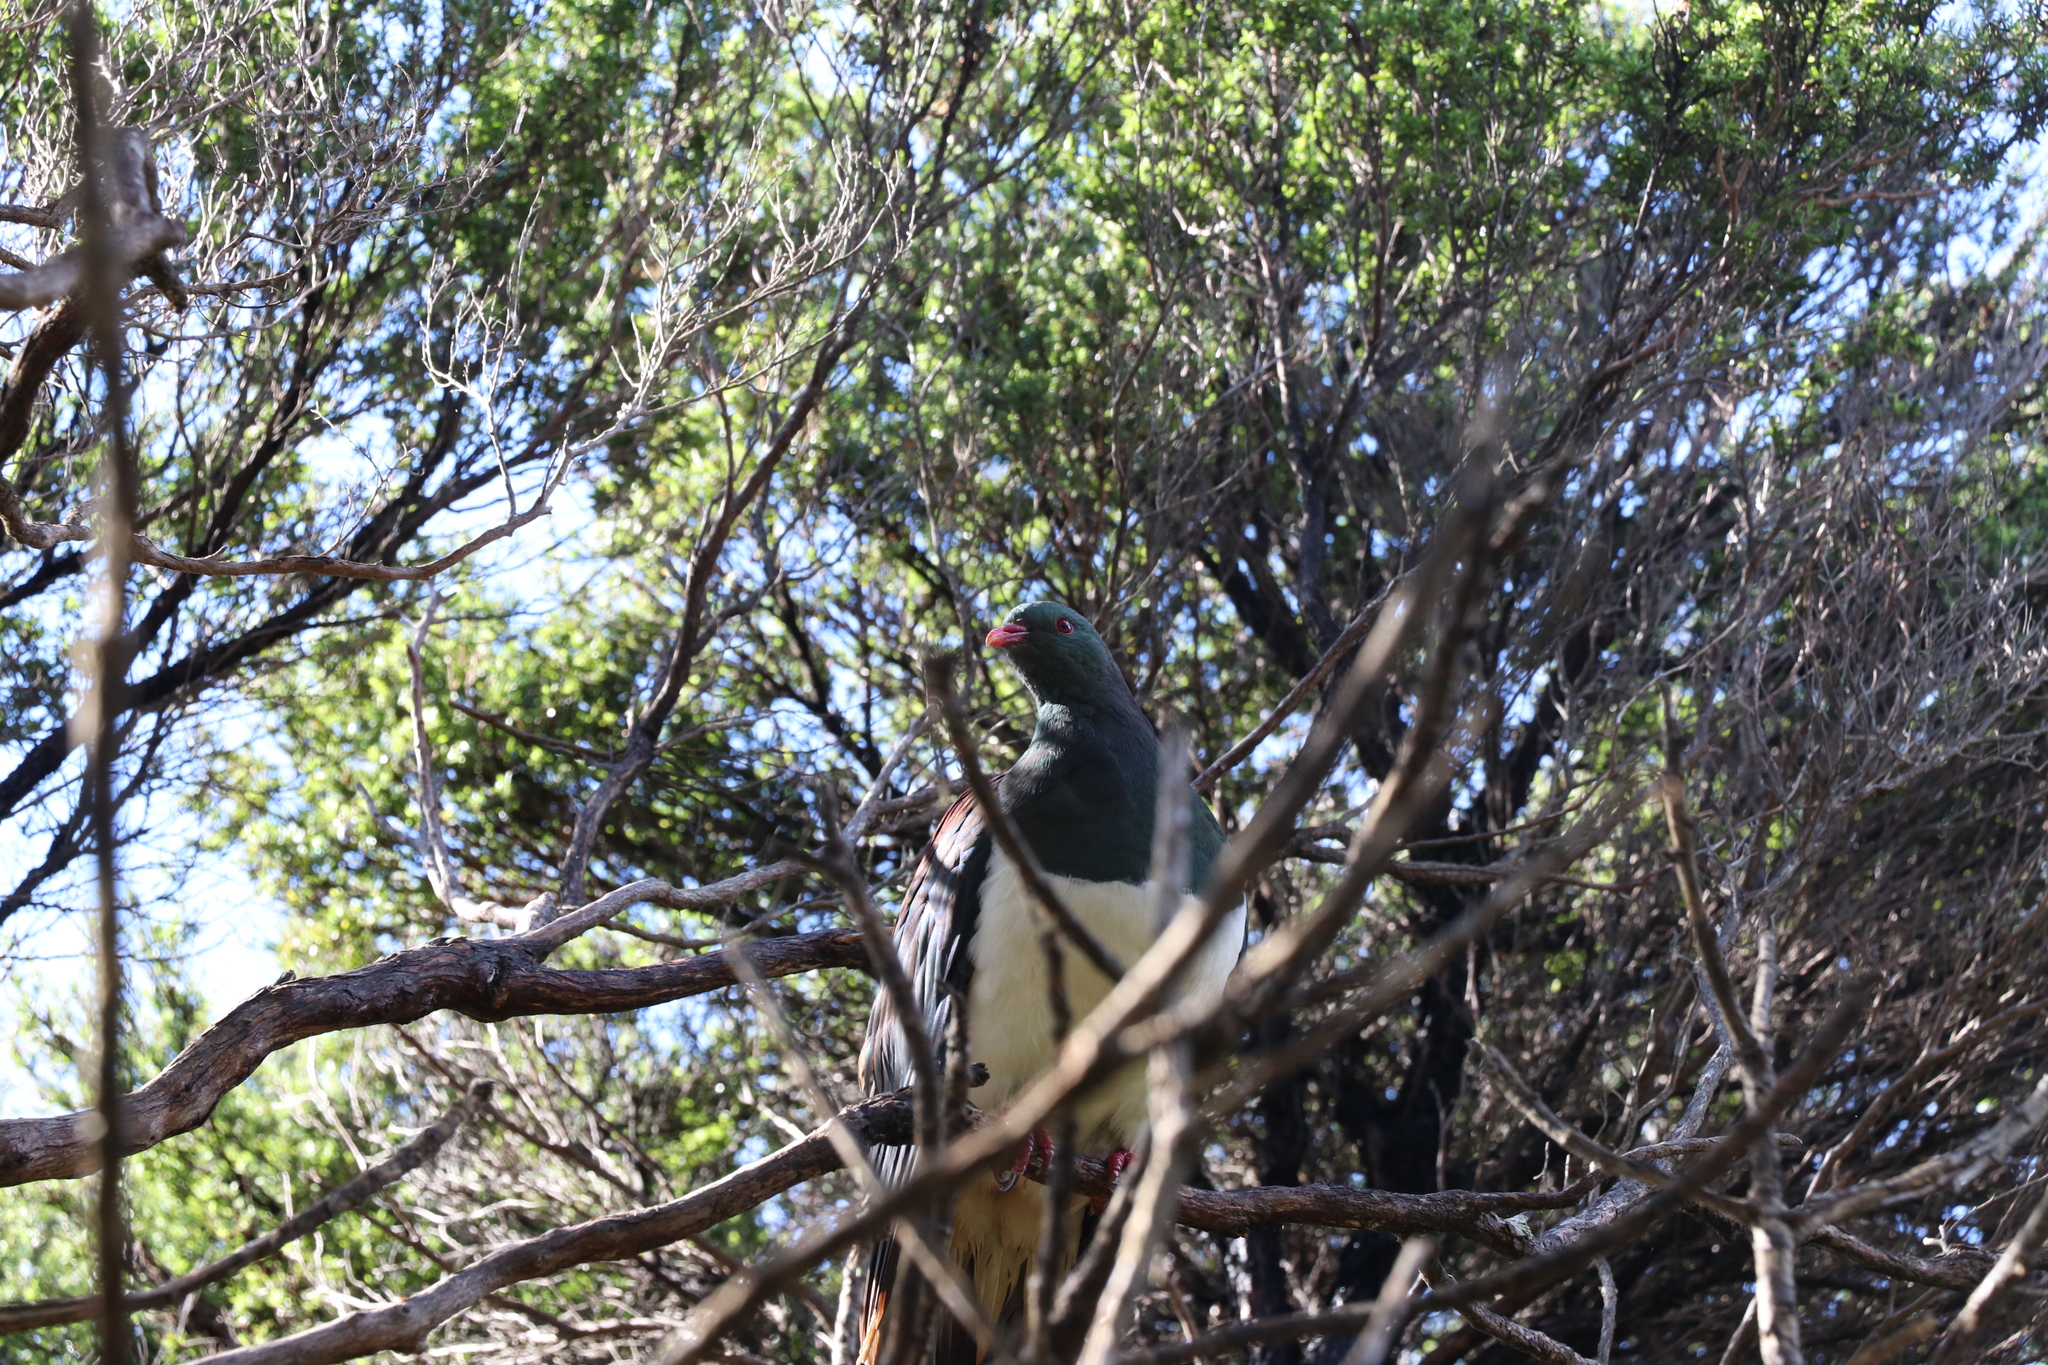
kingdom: Animalia
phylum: Chordata
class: Aves
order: Columbiformes
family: Columbidae
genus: Hemiphaga
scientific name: Hemiphaga novaeseelandiae
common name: New zealand pigeon
